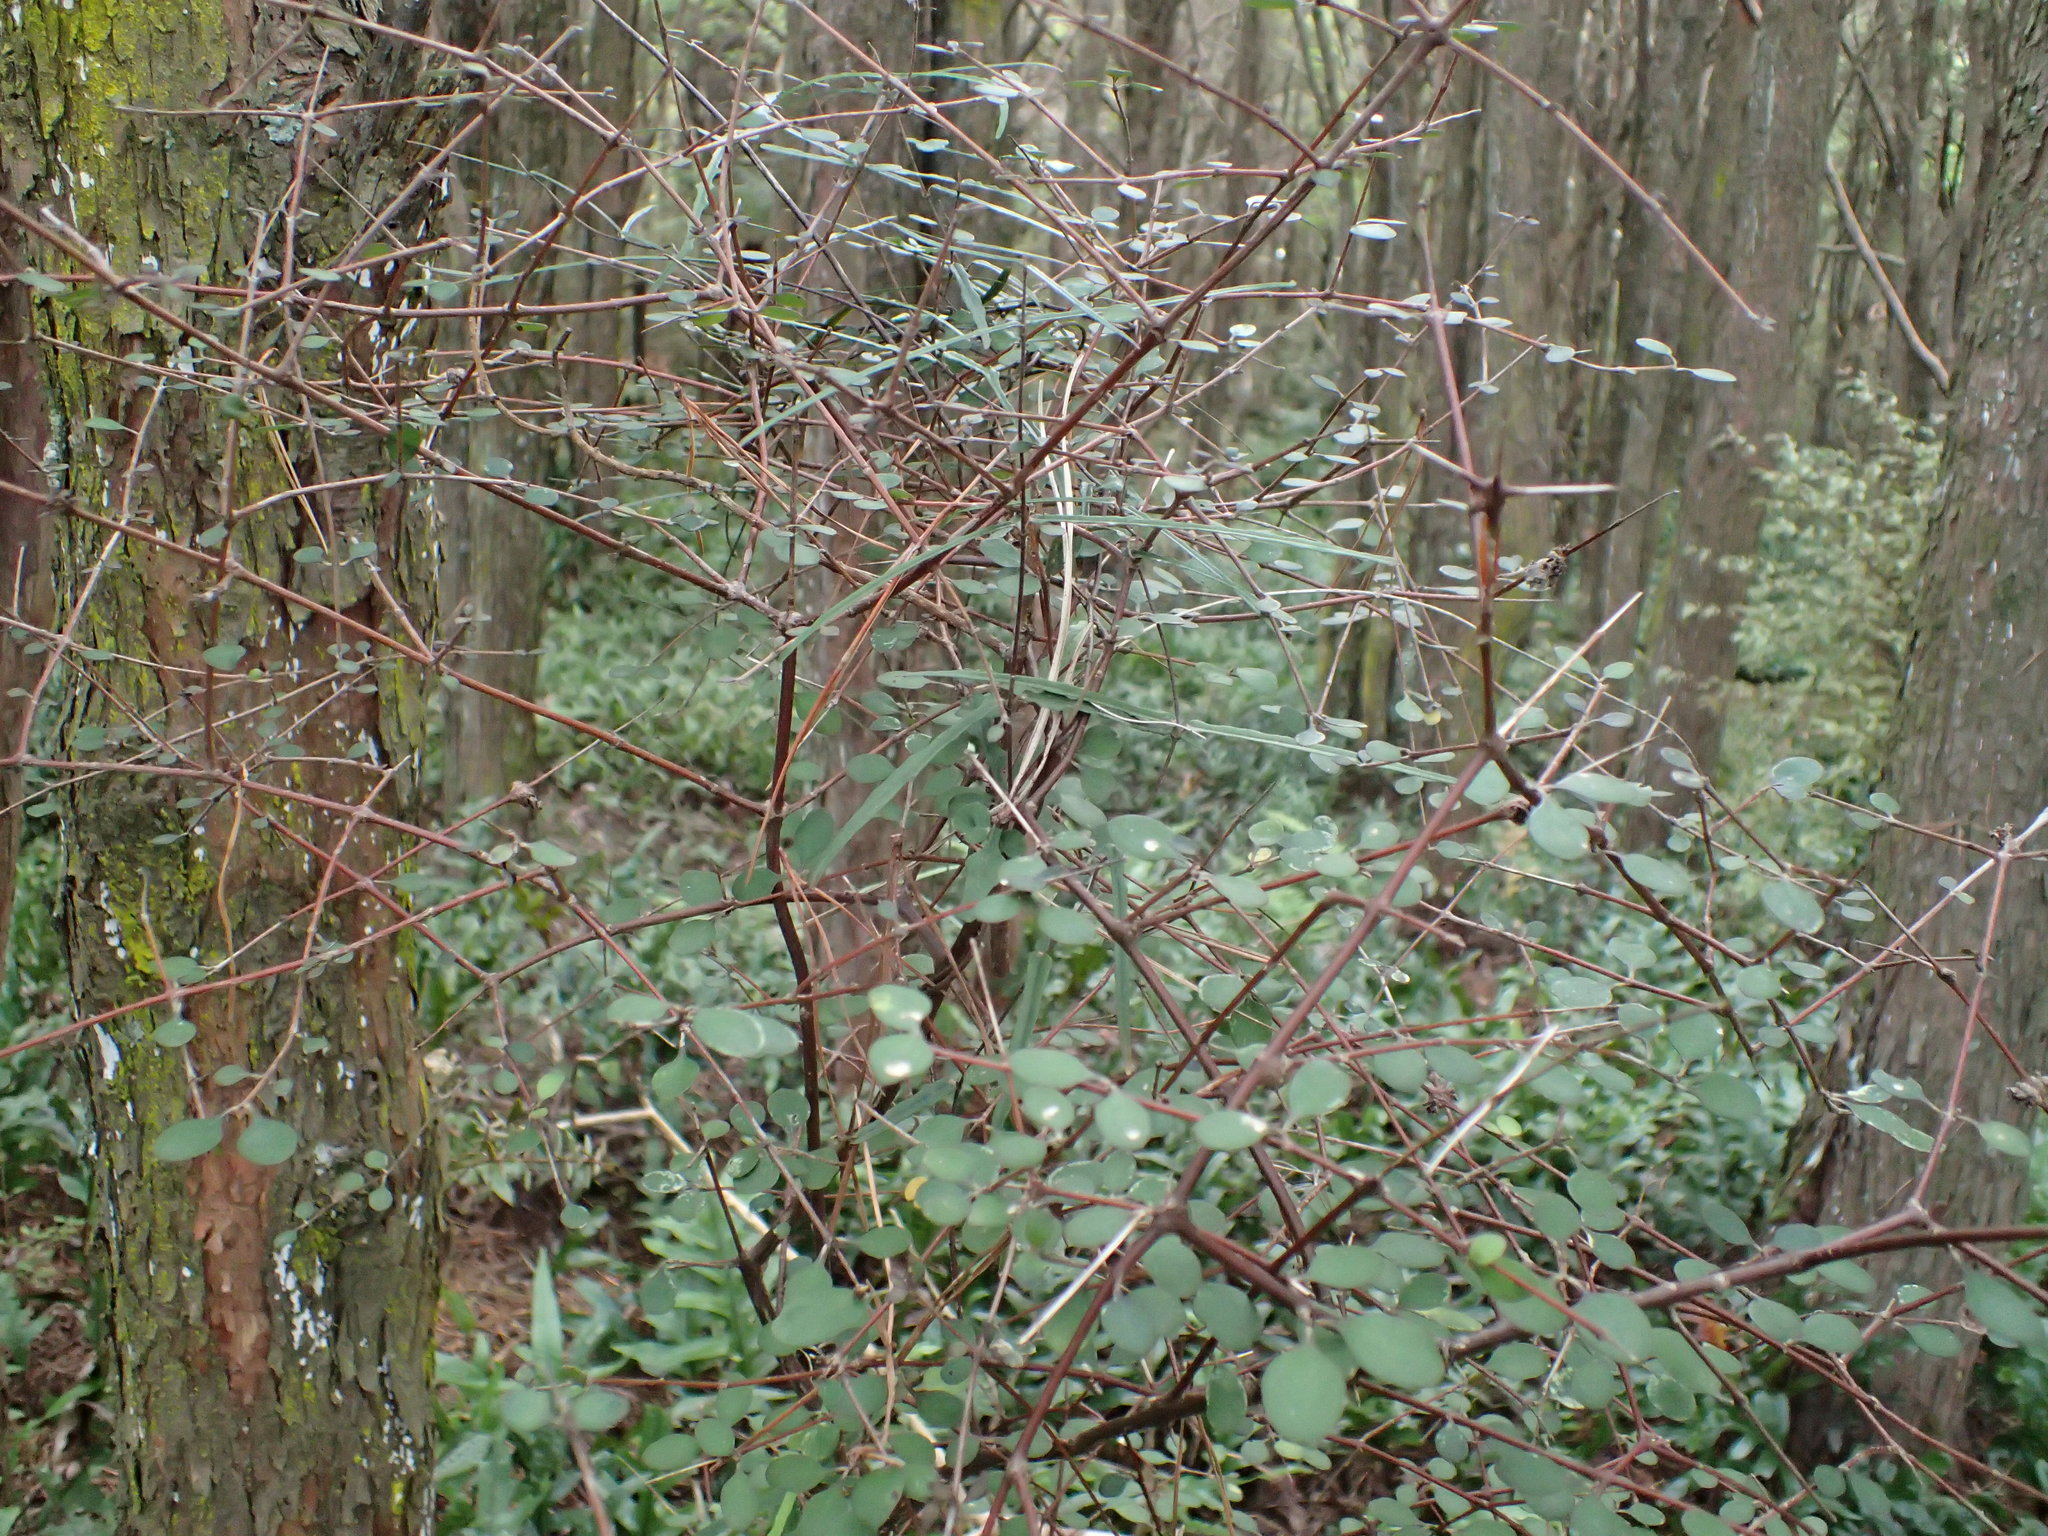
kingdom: Plantae
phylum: Tracheophyta
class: Magnoliopsida
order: Gentianales
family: Rubiaceae
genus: Coprosma
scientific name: Coprosma rubra
